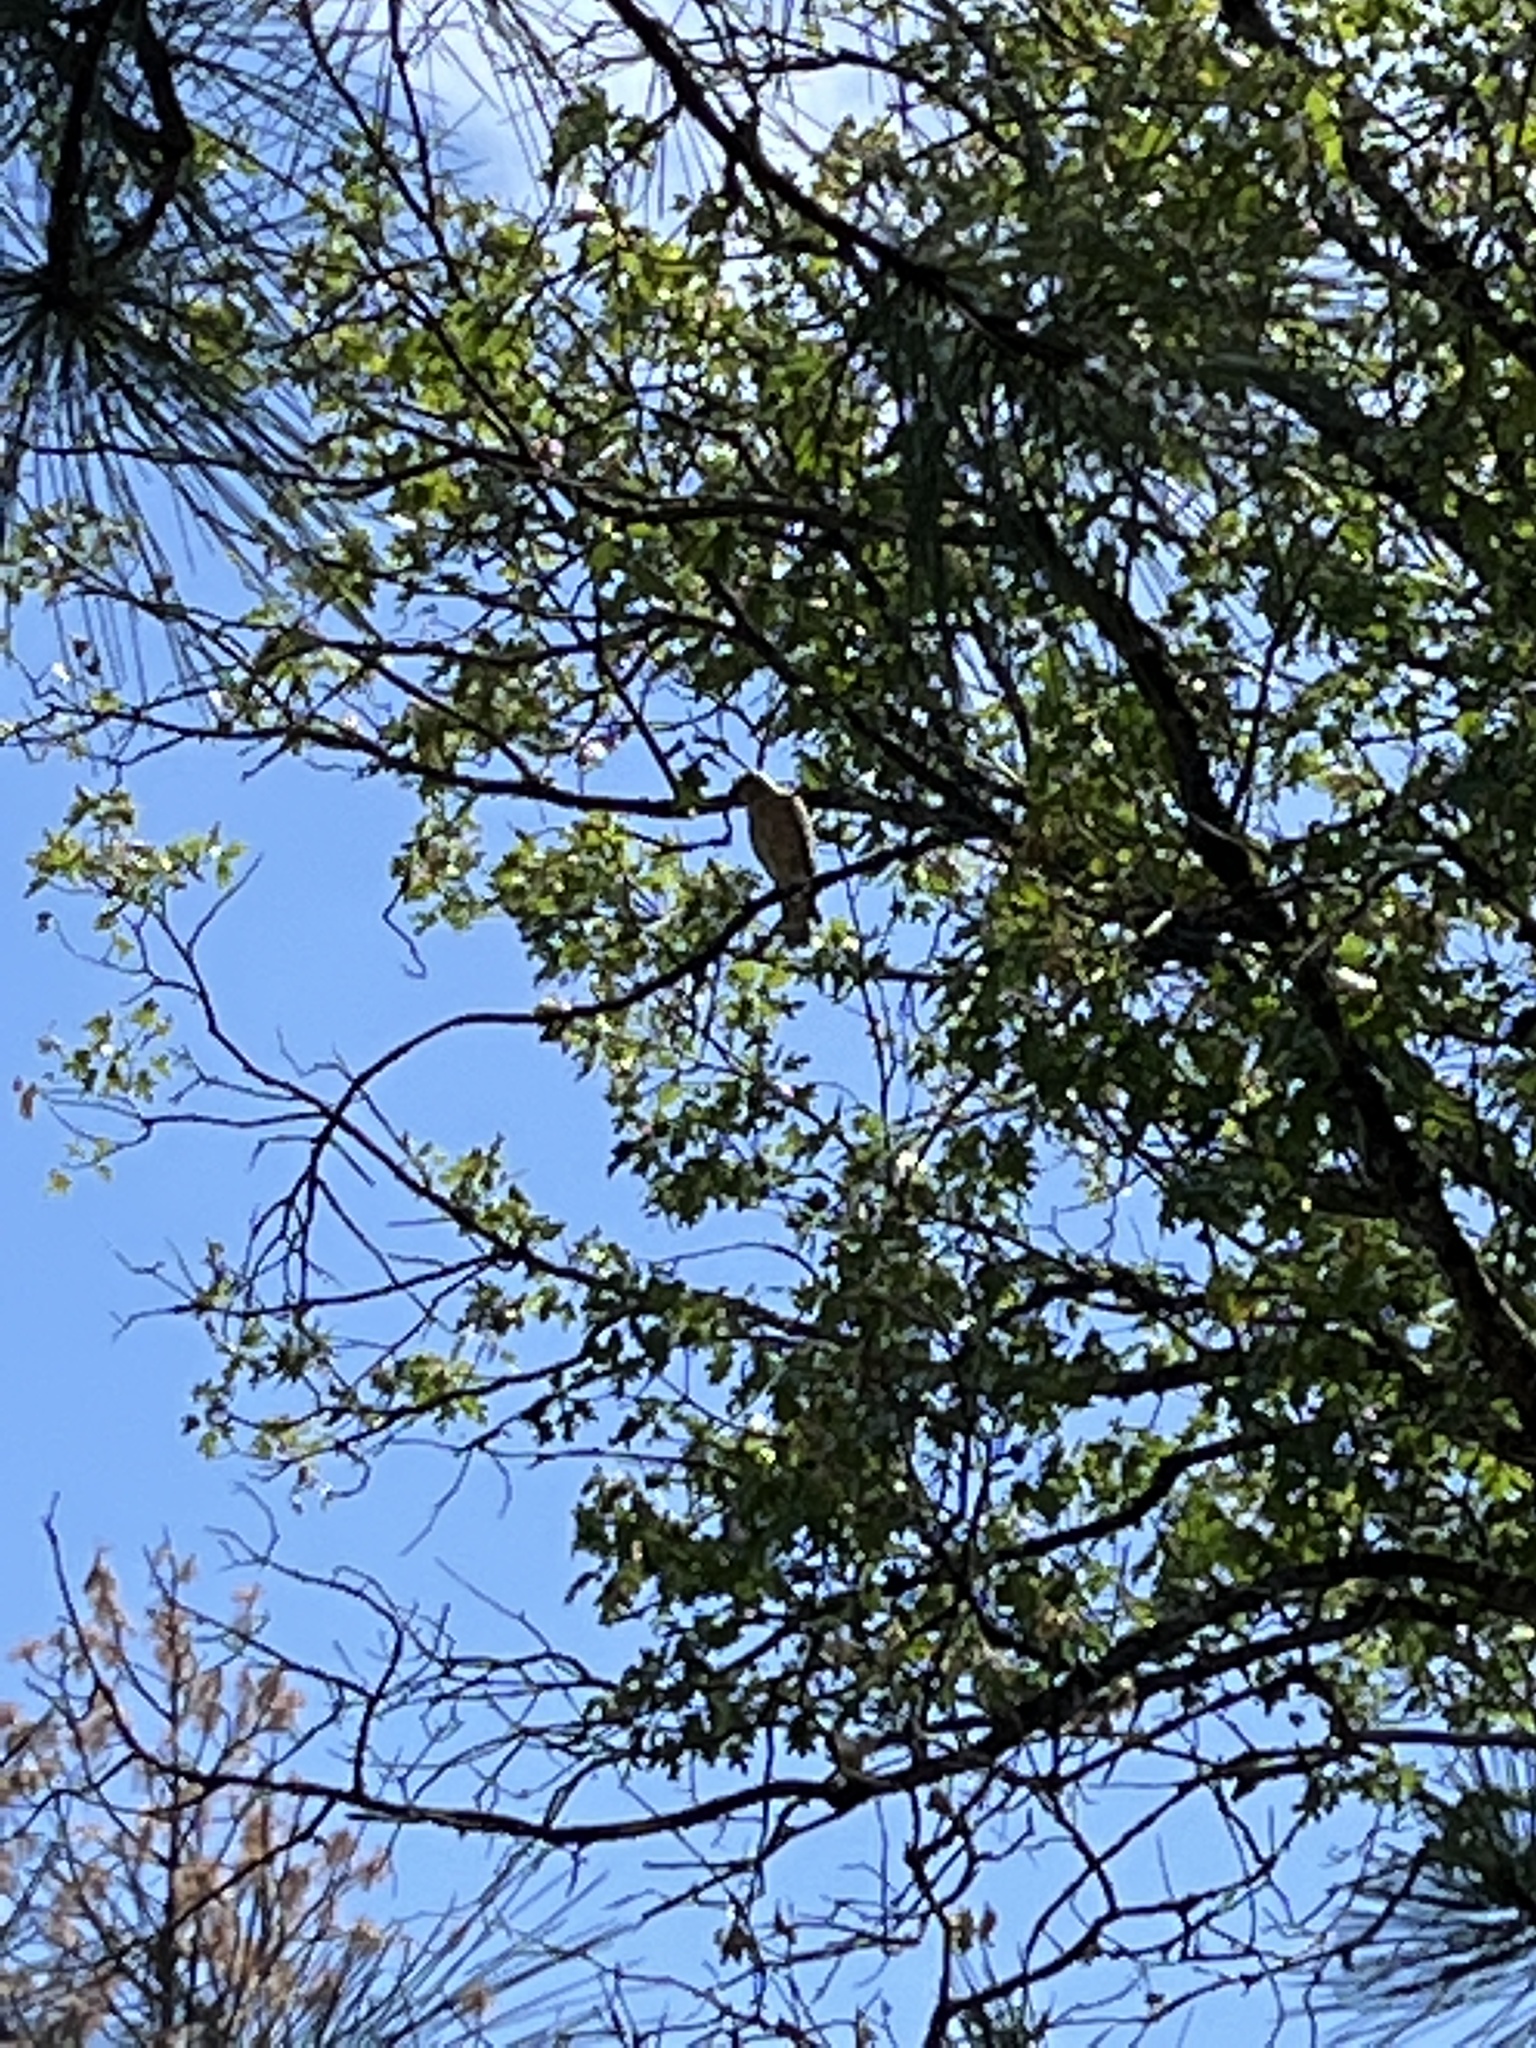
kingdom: Animalia
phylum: Chordata
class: Aves
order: Accipitriformes
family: Accipitridae
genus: Buteo
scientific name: Buteo lineatus
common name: Red-shouldered hawk
